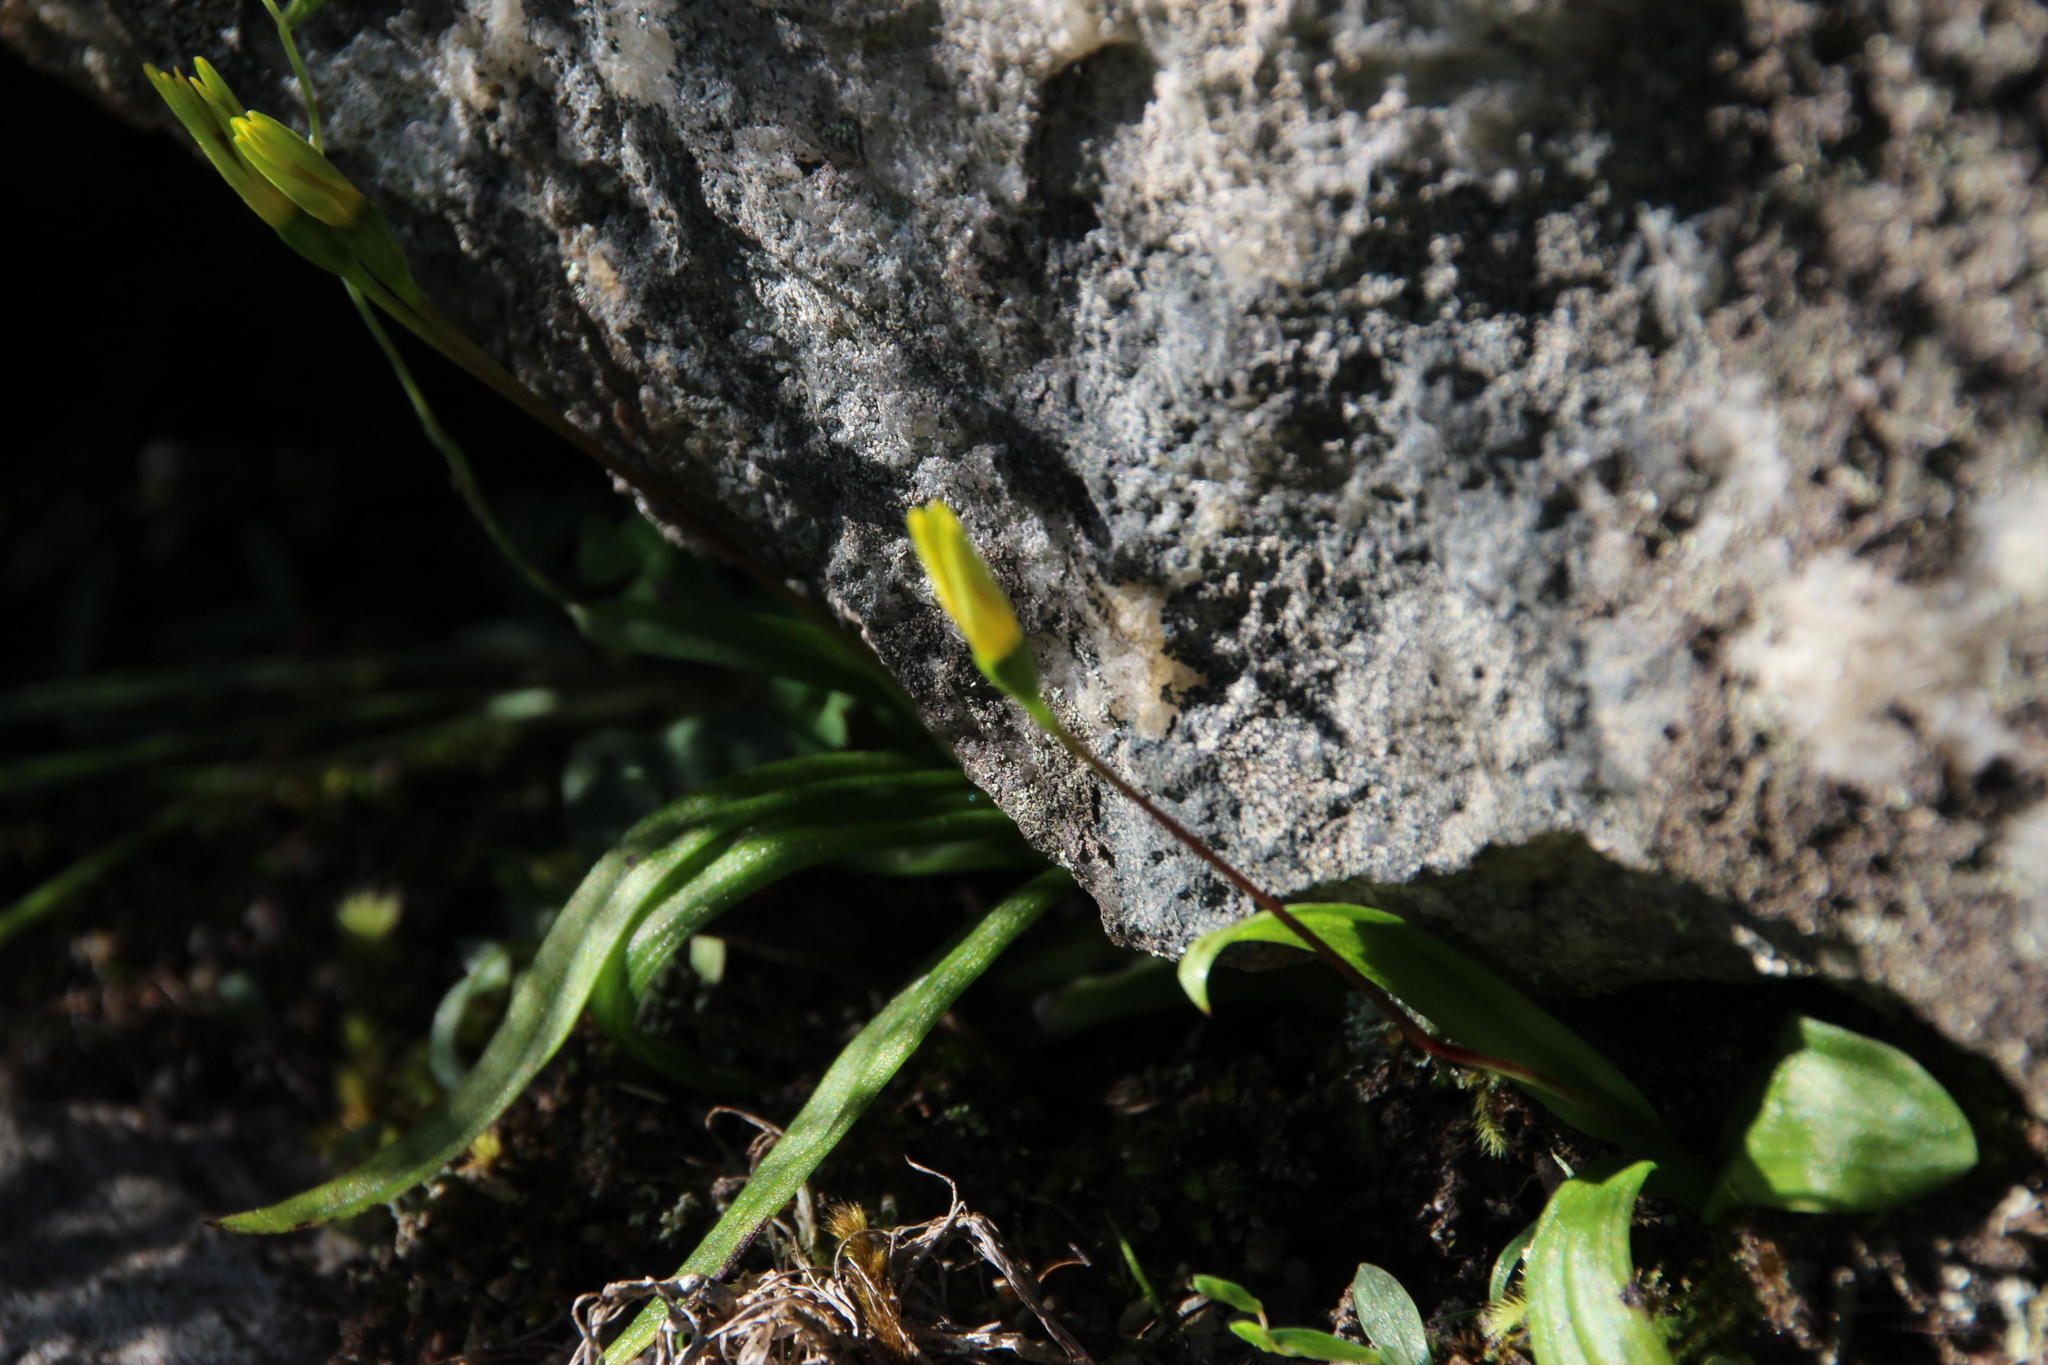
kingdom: Plantae
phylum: Tracheophyta
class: Liliopsida
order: Asparagales
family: Hypoxidaceae
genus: Pauridia
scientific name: Pauridia gracilipes
